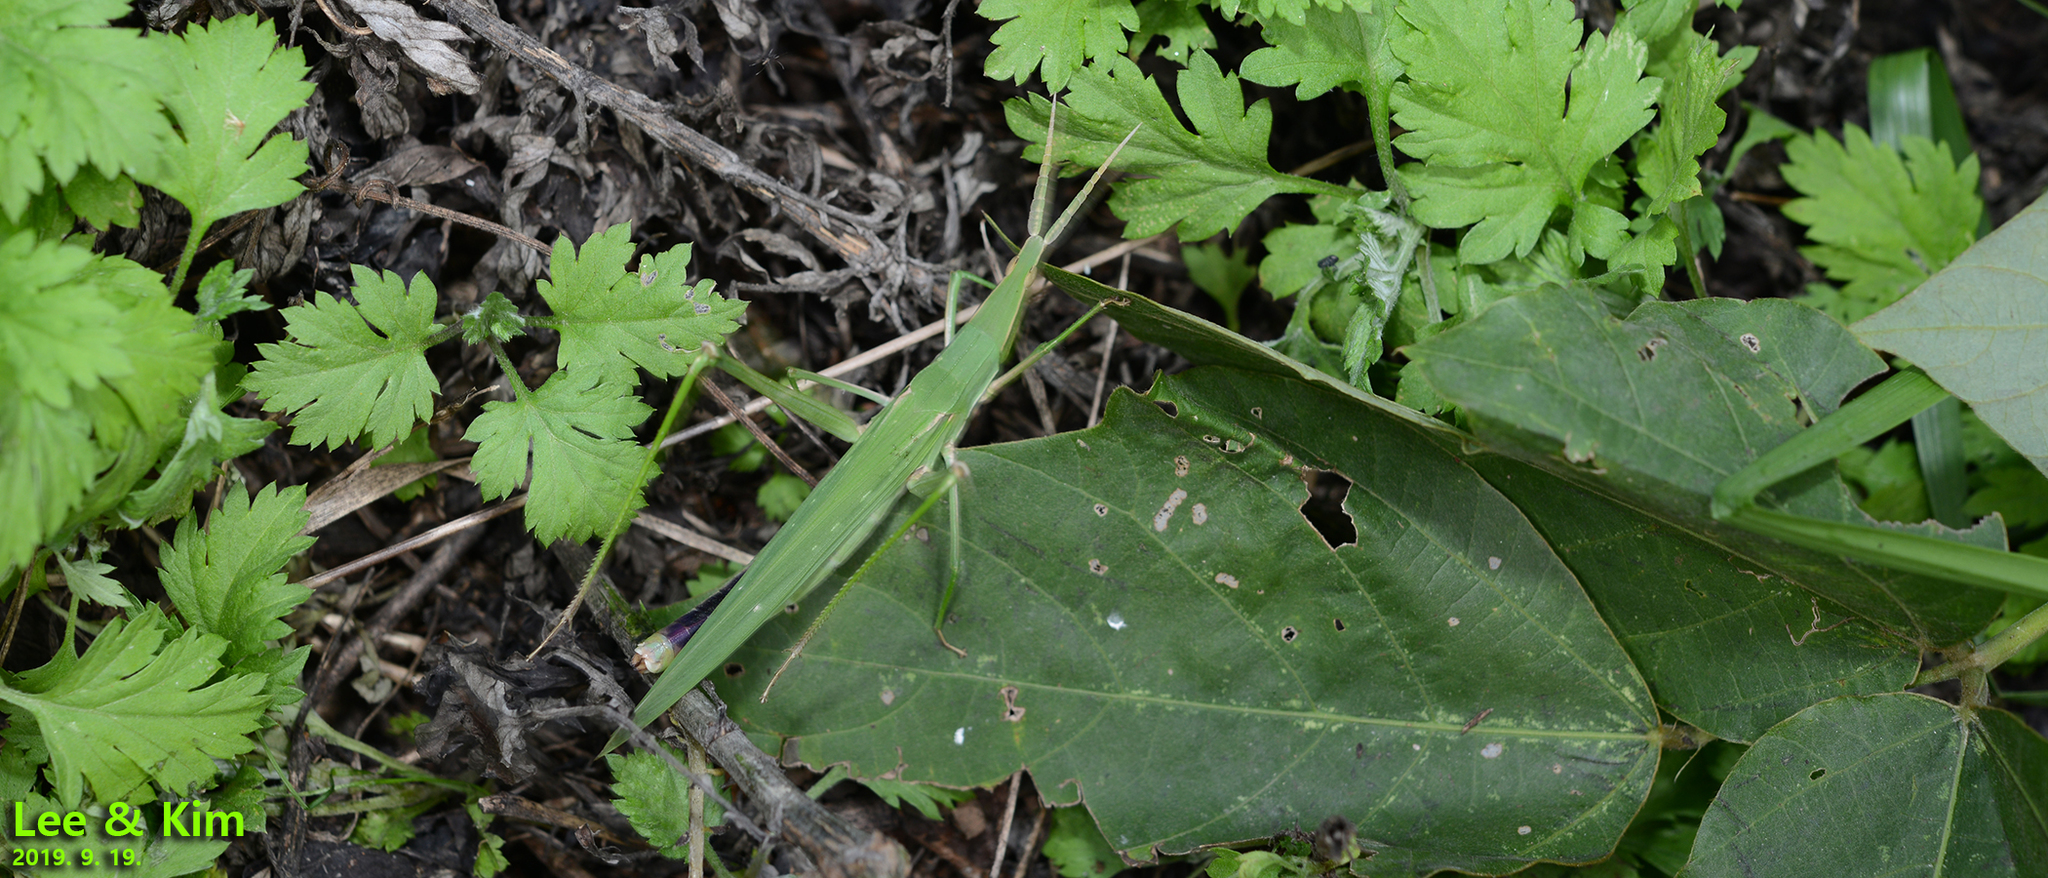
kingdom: Animalia
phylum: Arthropoda
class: Insecta
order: Orthoptera
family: Acrididae
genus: Acrida
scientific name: Acrida cinerea
